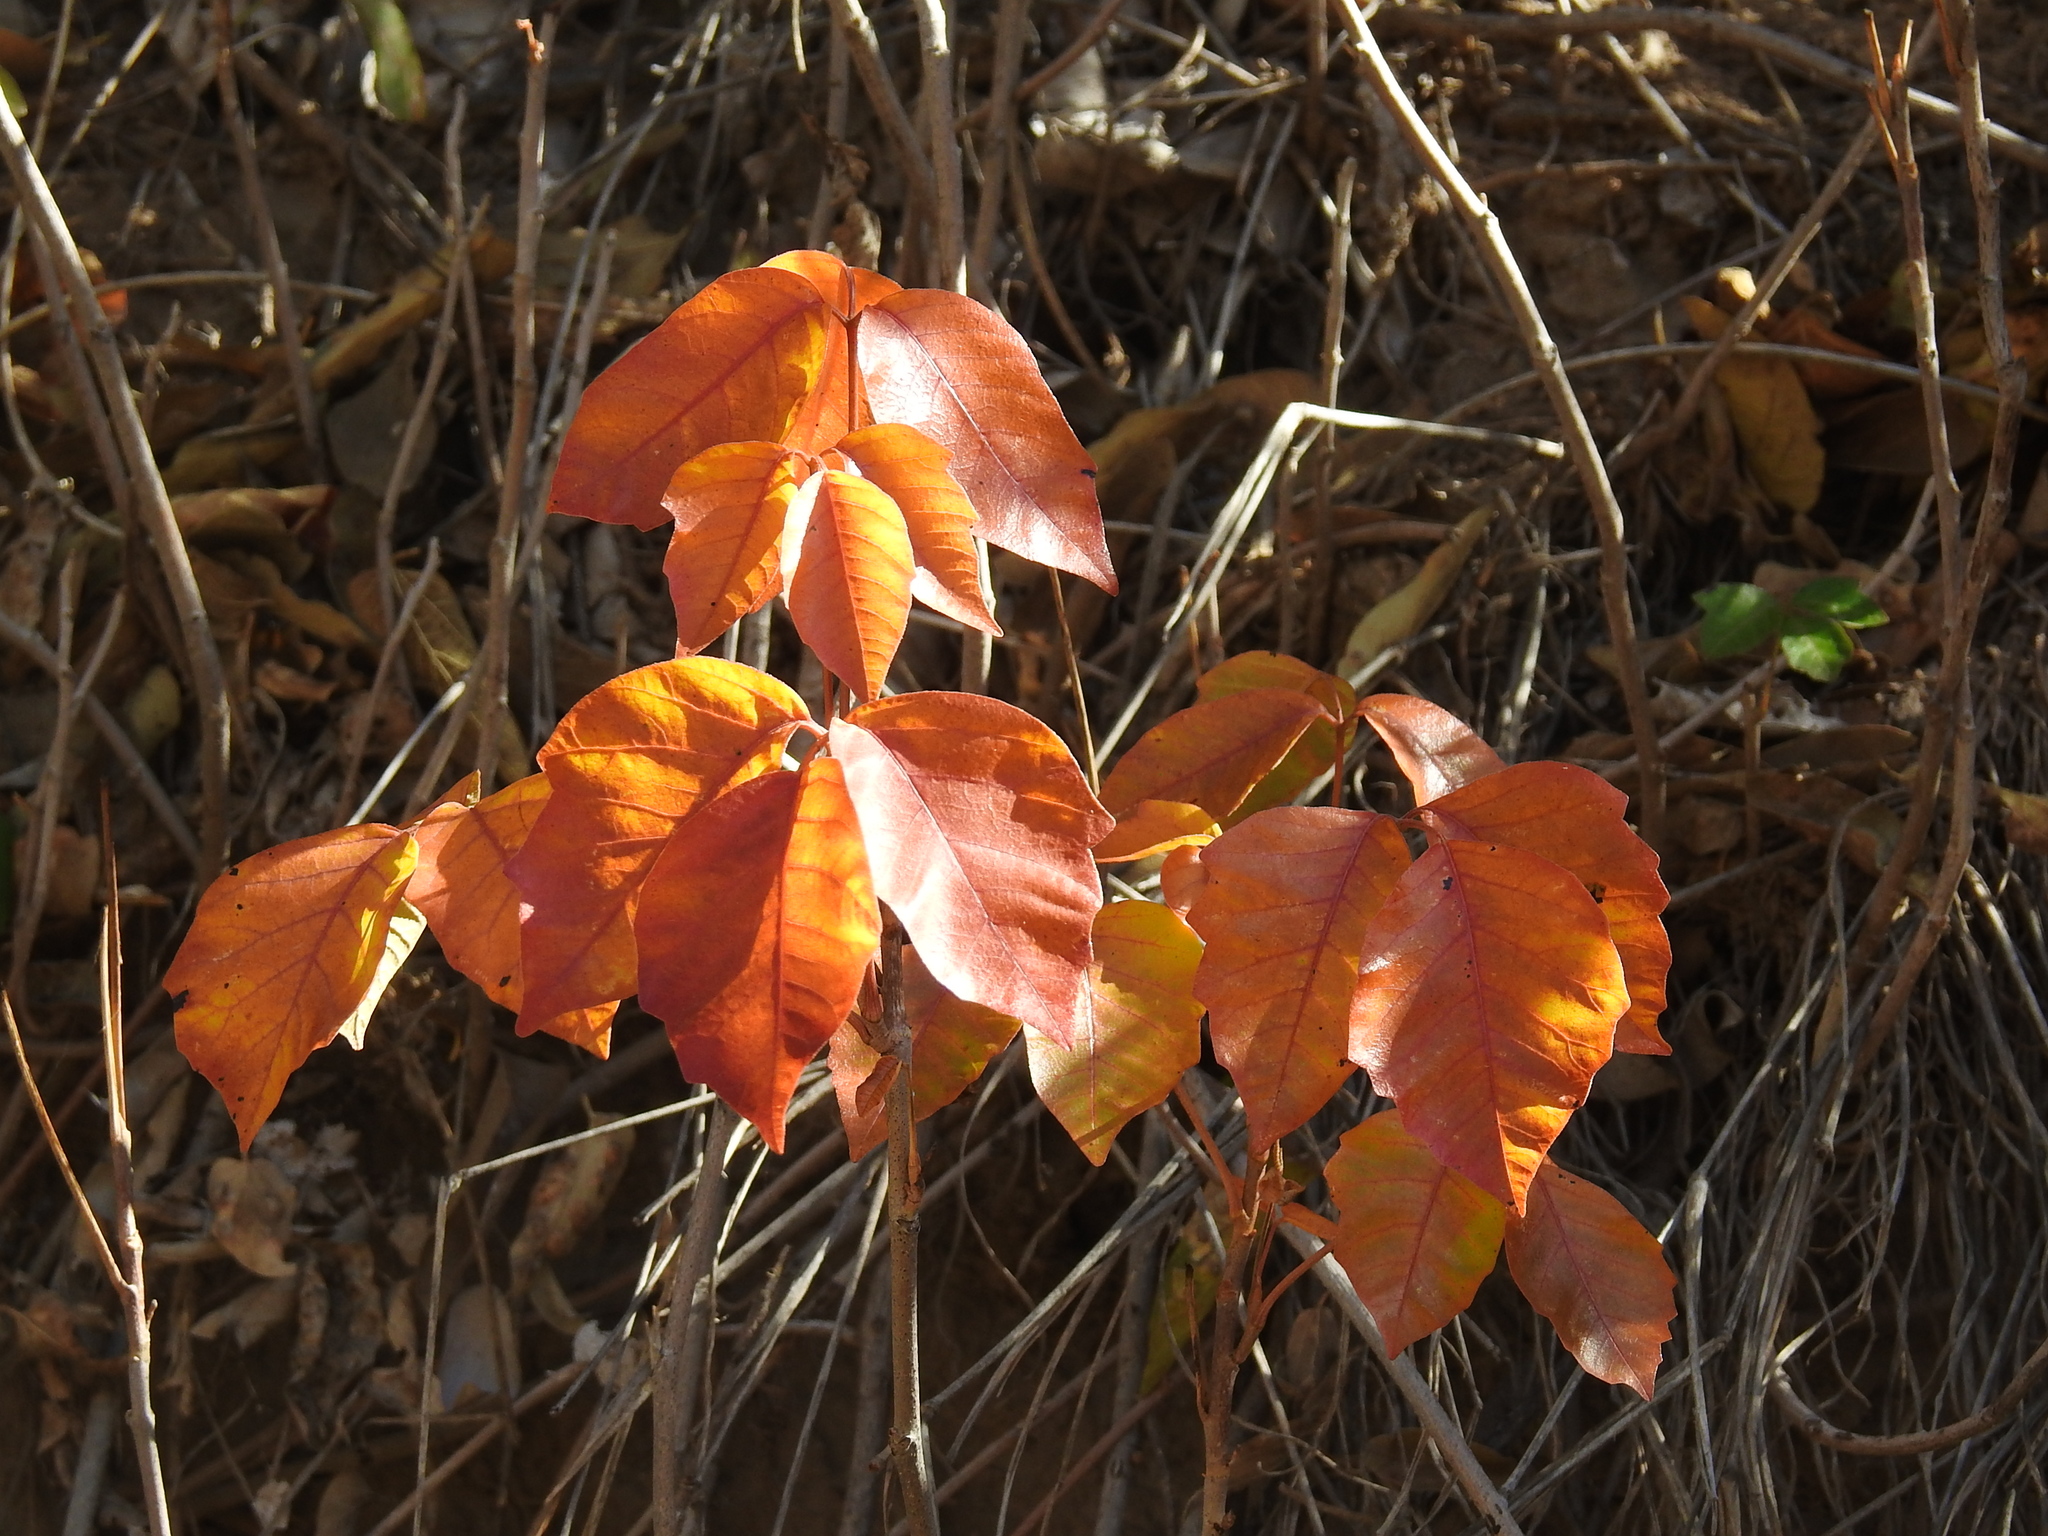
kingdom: Plantae
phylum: Tracheophyta
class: Magnoliopsida
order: Sapindales
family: Anacardiaceae
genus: Toxicodendron
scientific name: Toxicodendron rydbergii
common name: Rydberg's poison-ivy
